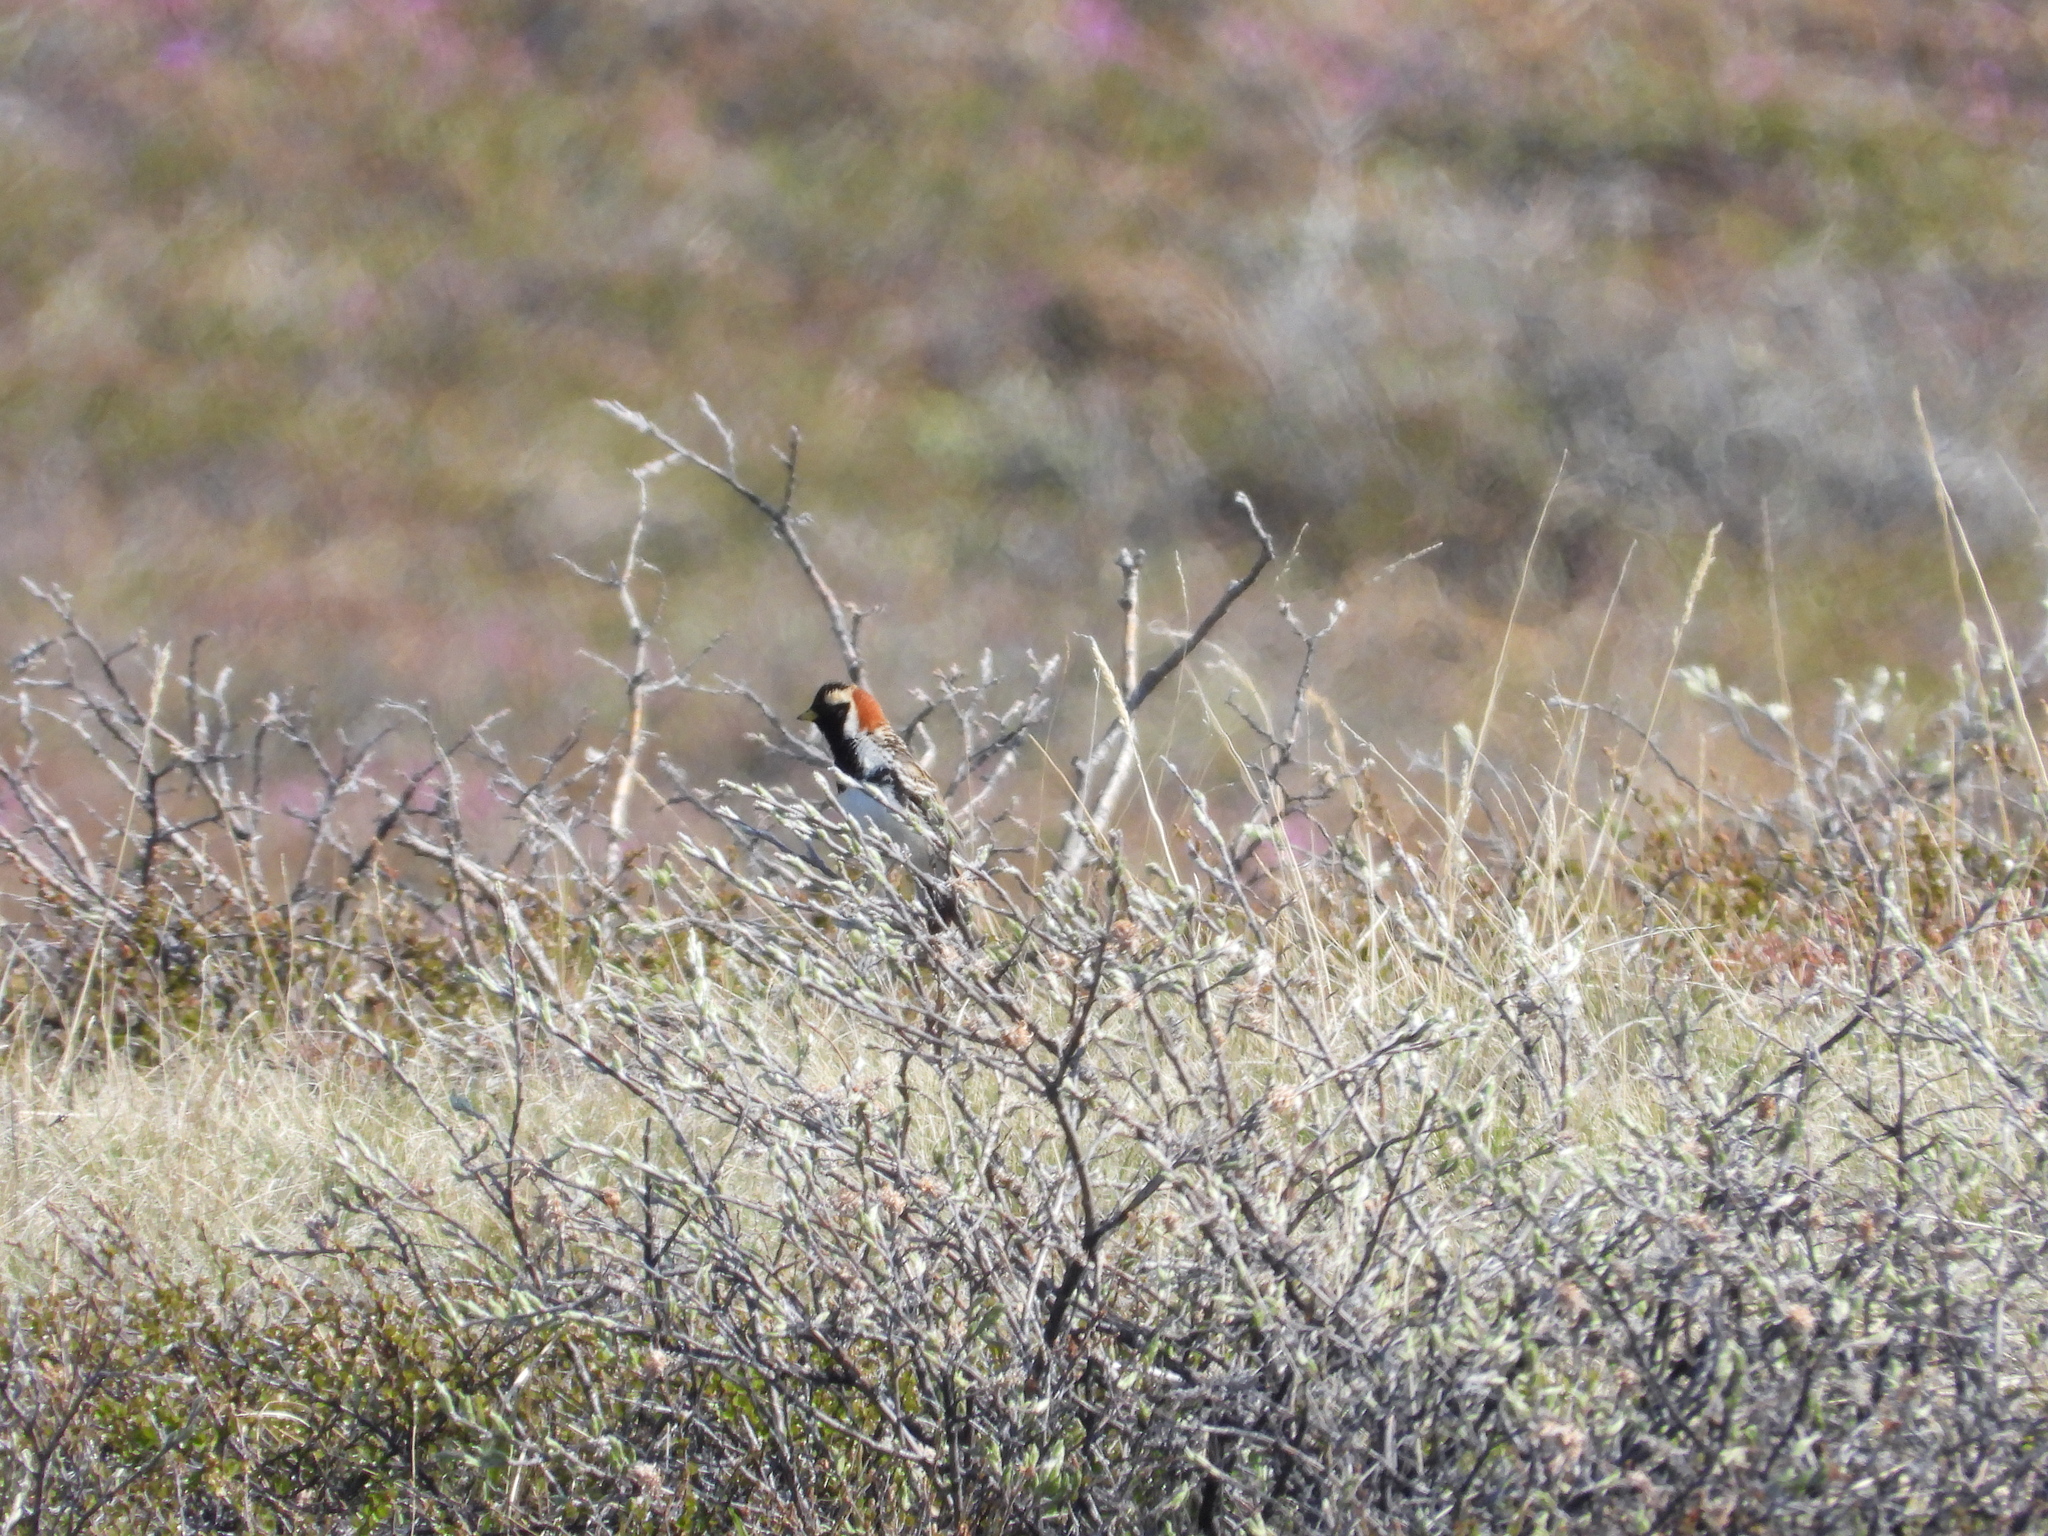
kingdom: Animalia
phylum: Chordata
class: Aves
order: Passeriformes
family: Calcariidae
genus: Calcarius
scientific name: Calcarius lapponicus
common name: Lapland longspur
